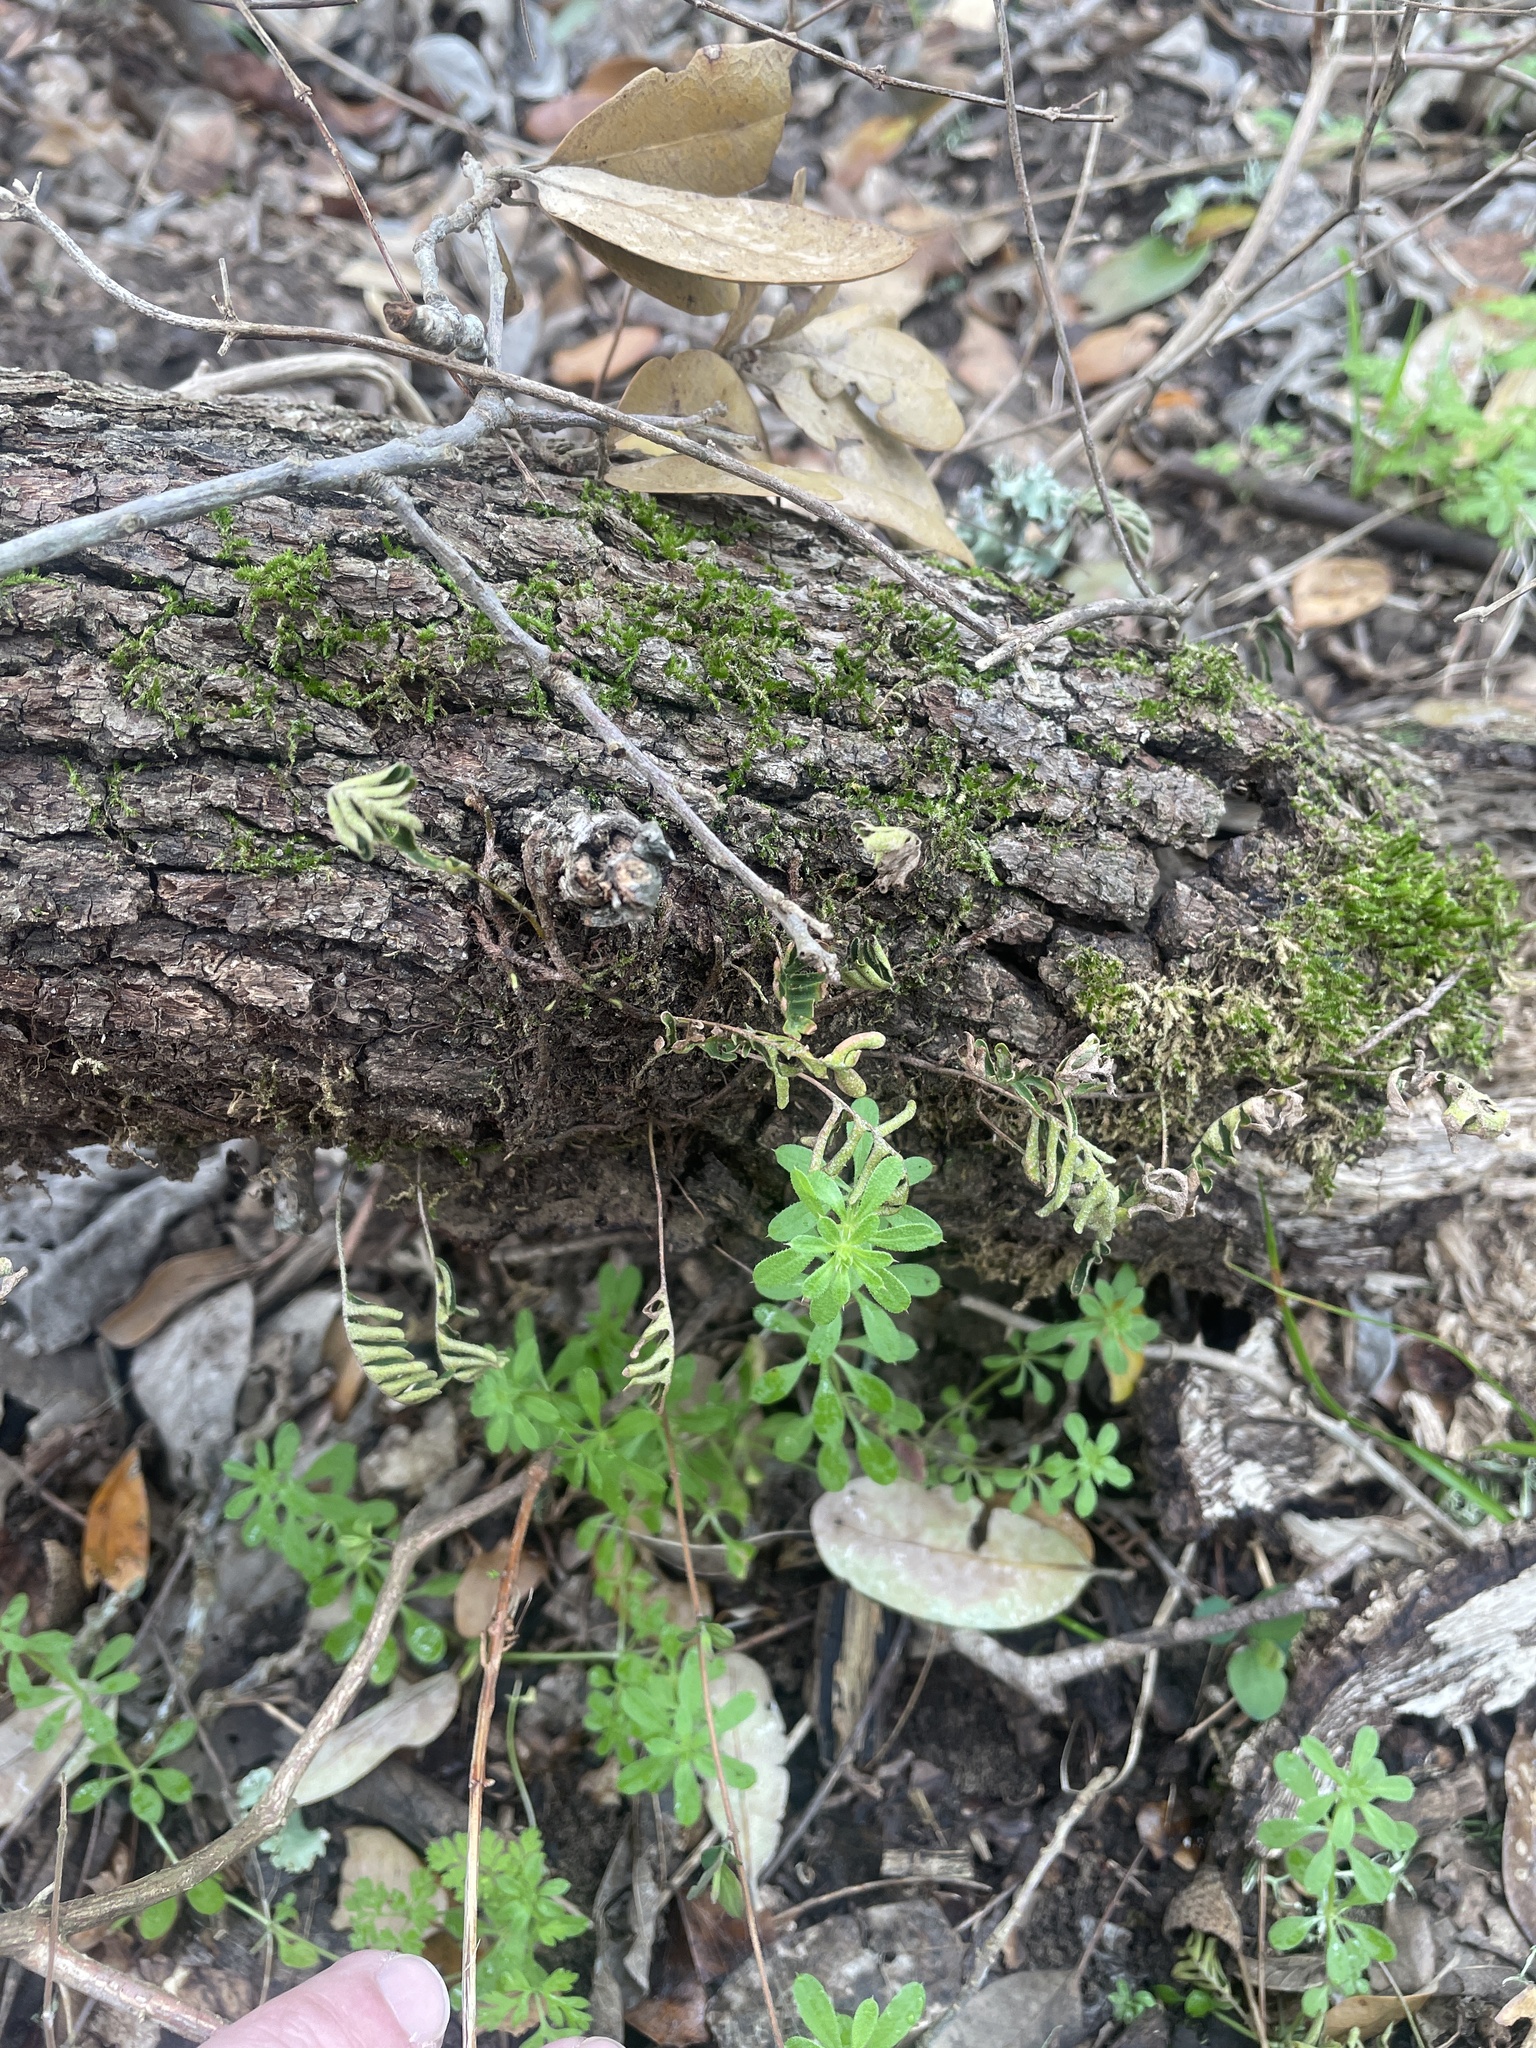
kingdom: Plantae
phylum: Tracheophyta
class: Polypodiopsida
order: Polypodiales
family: Polypodiaceae
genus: Pleopeltis
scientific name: Pleopeltis michauxiana
